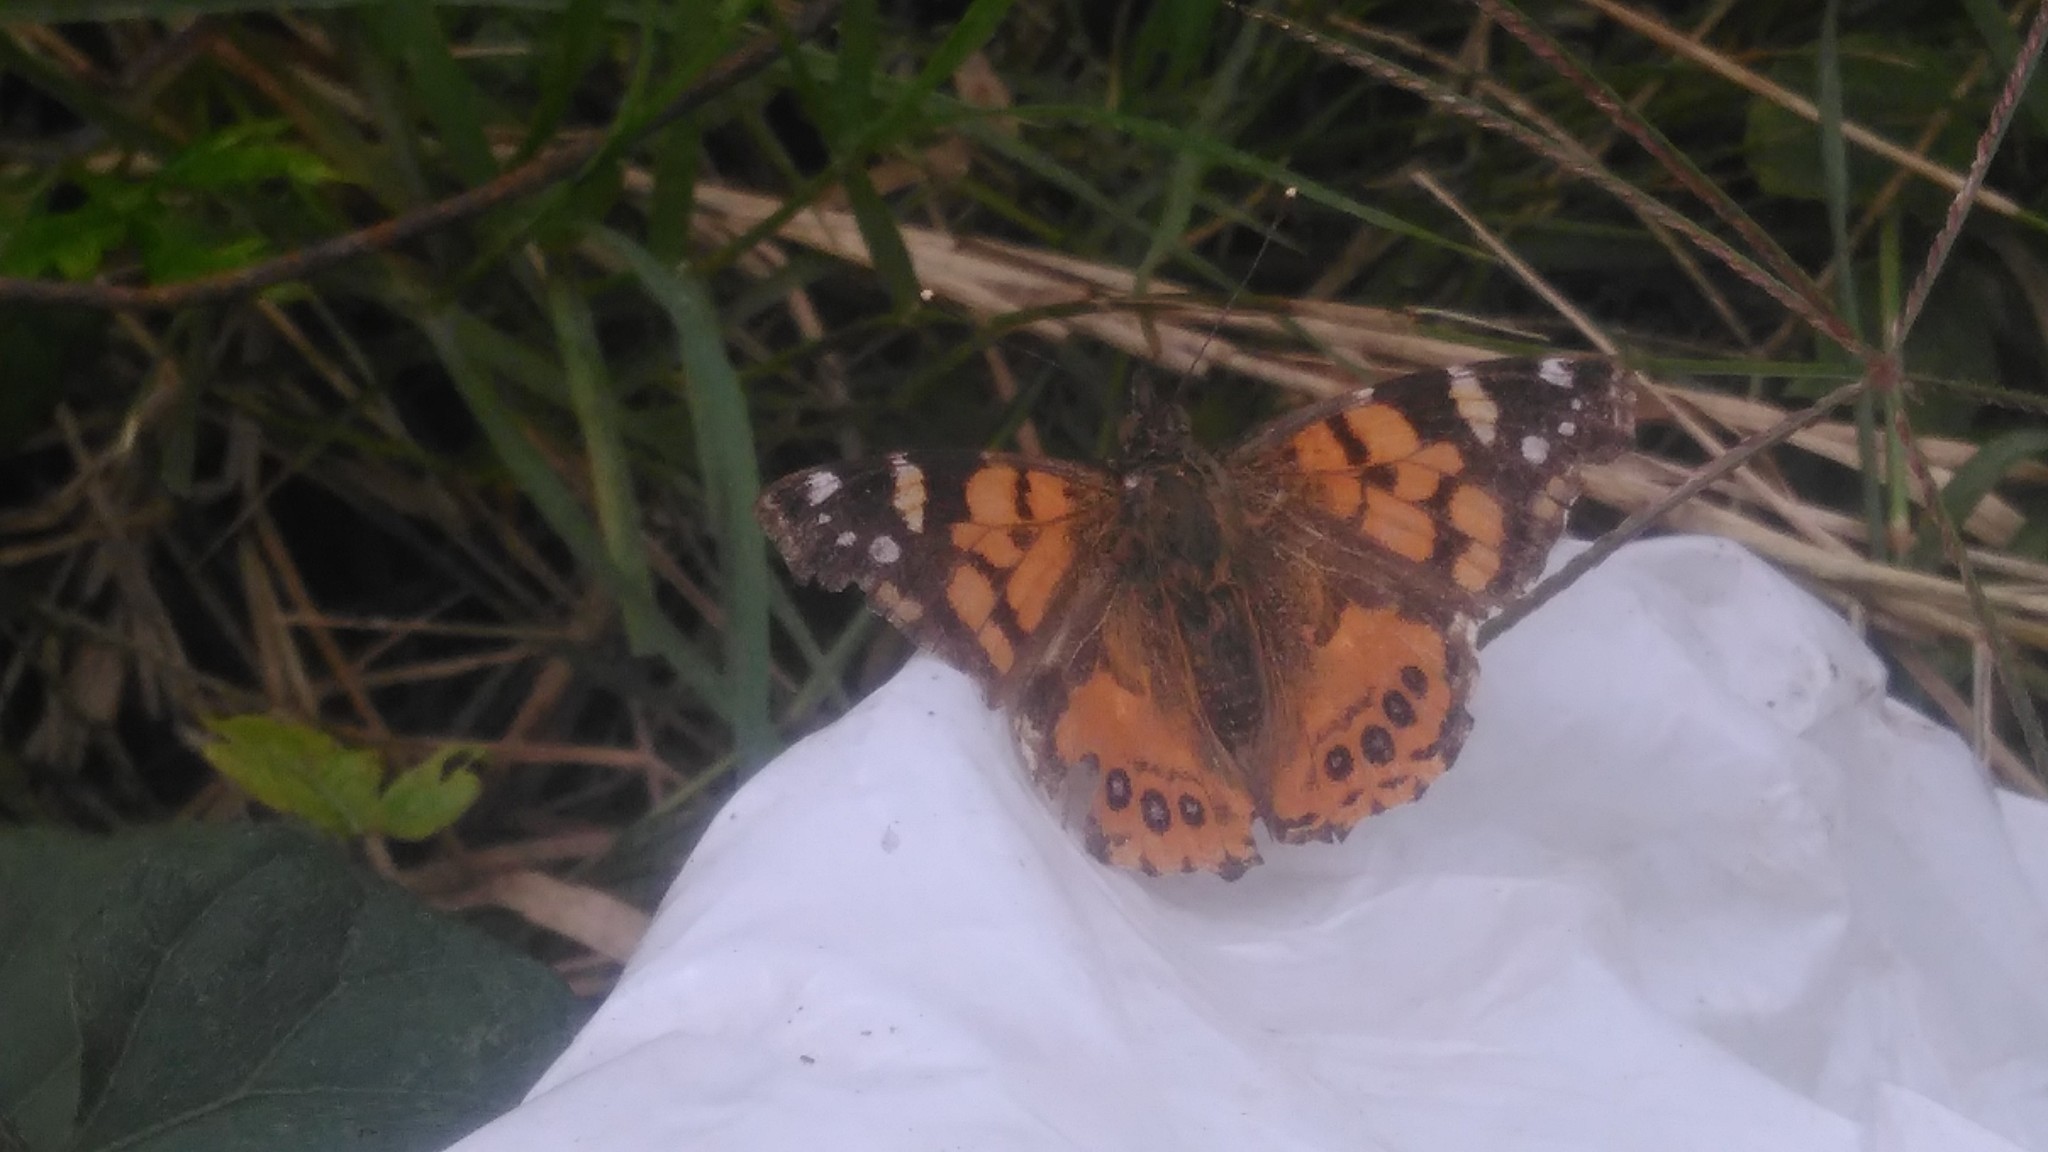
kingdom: Animalia
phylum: Arthropoda
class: Insecta
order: Lepidoptera
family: Nymphalidae
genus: Vanessa
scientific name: Vanessa carye
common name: Subtropical lady
